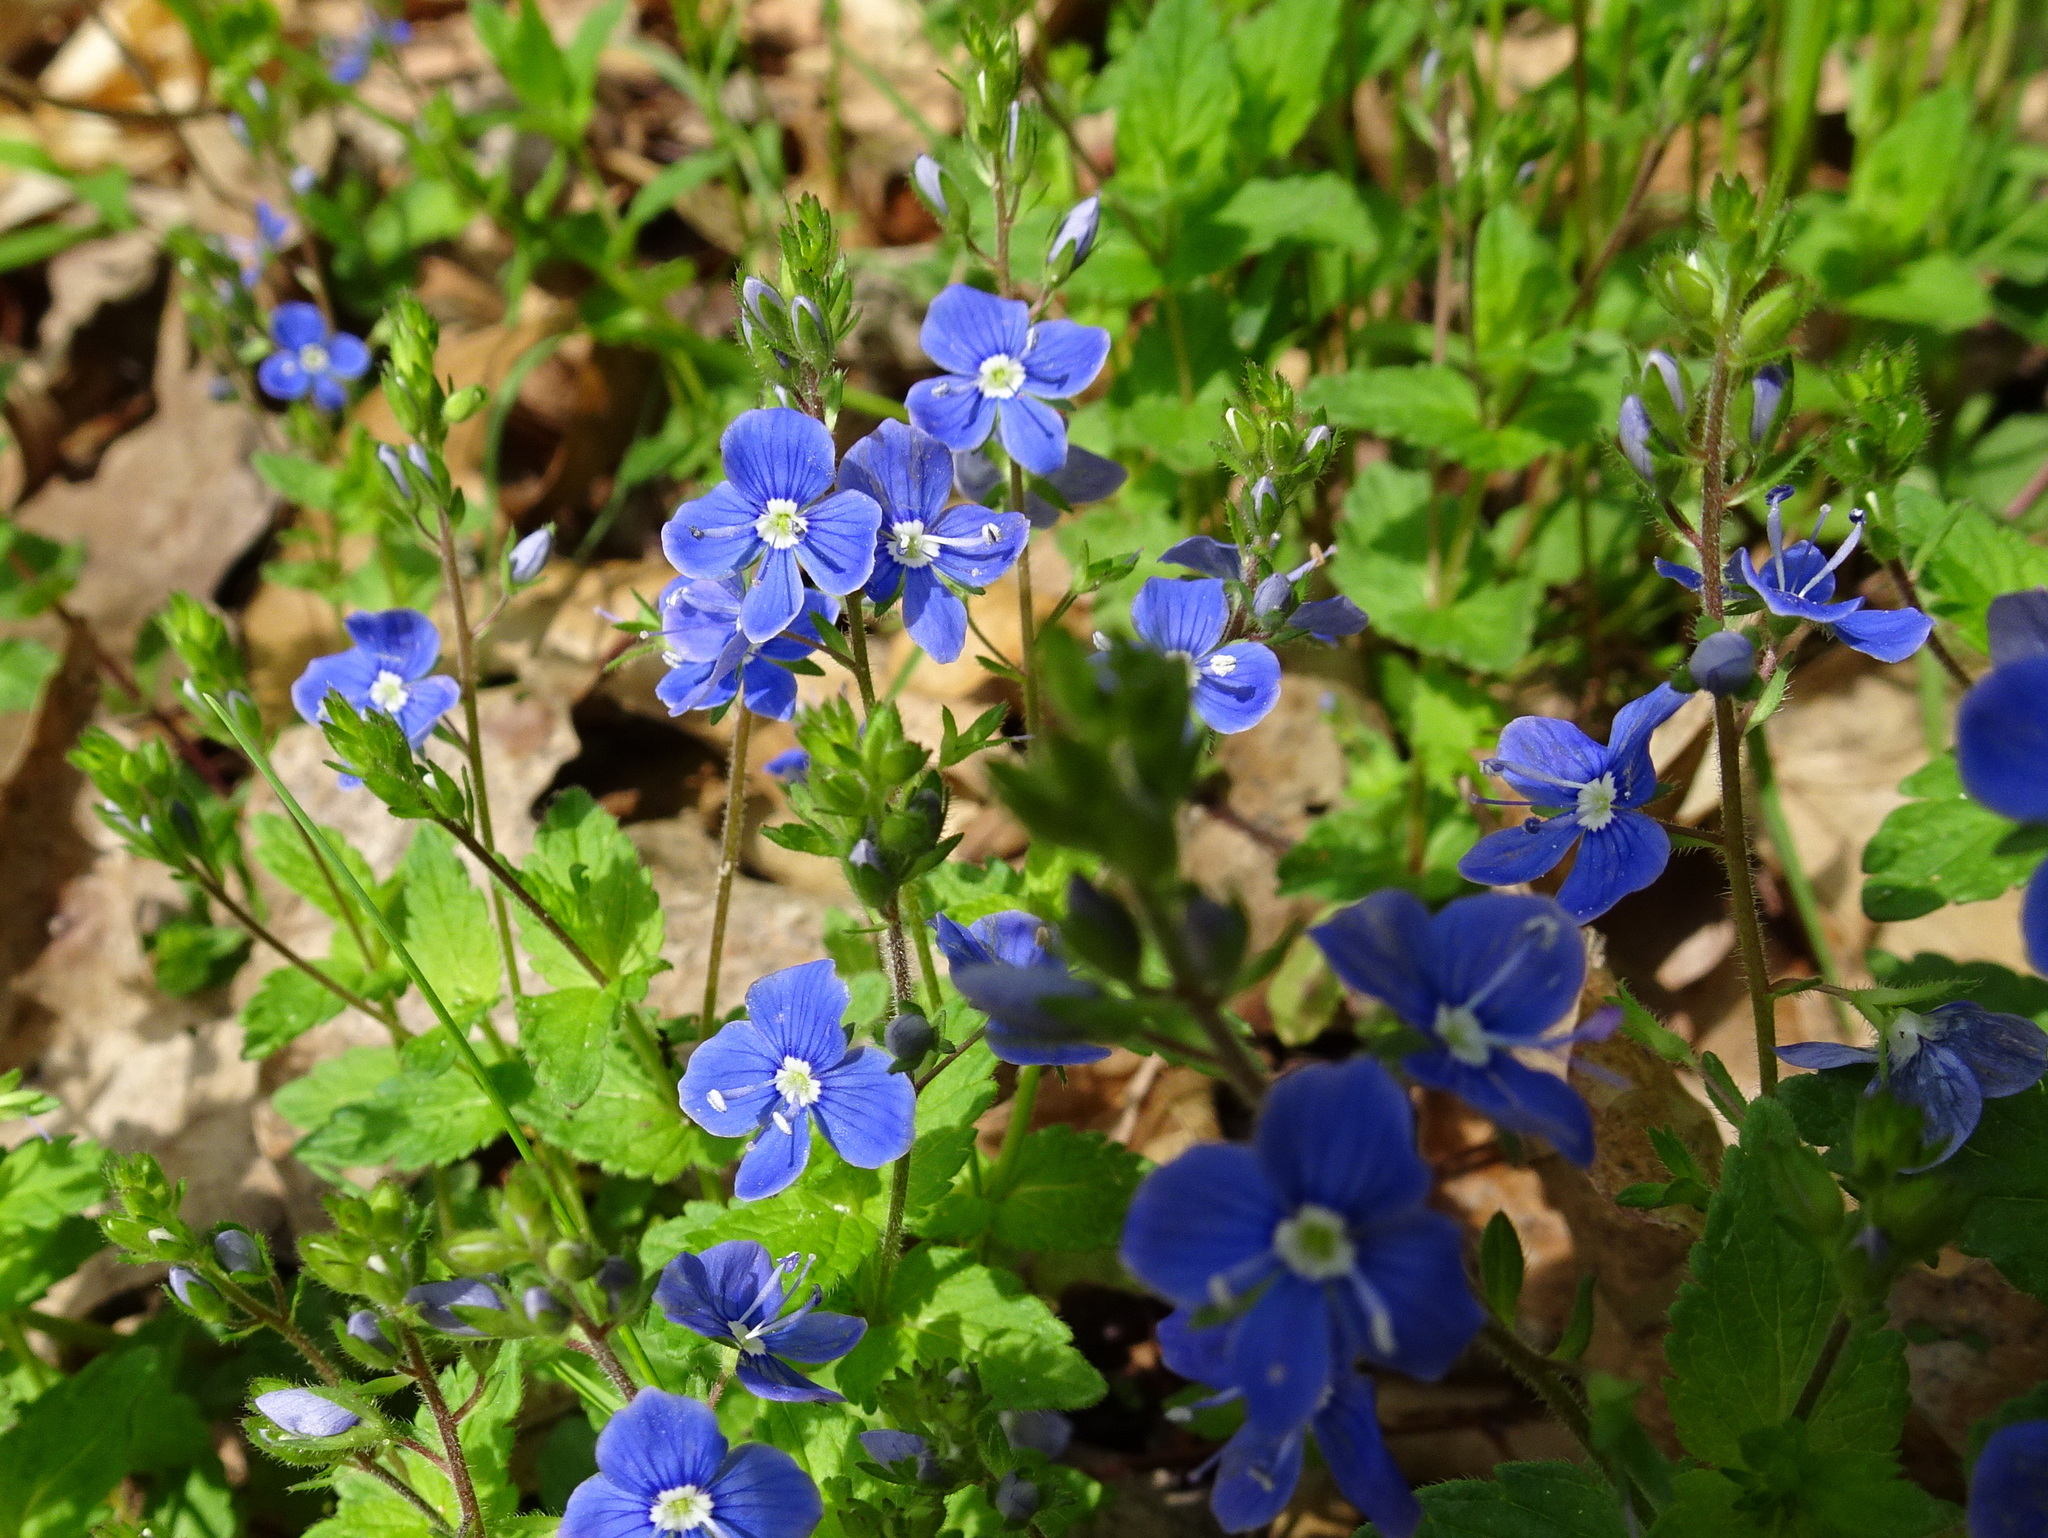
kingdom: Plantae
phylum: Tracheophyta
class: Magnoliopsida
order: Lamiales
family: Plantaginaceae
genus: Veronica
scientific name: Veronica chamaedrys
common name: Germander speedwell
